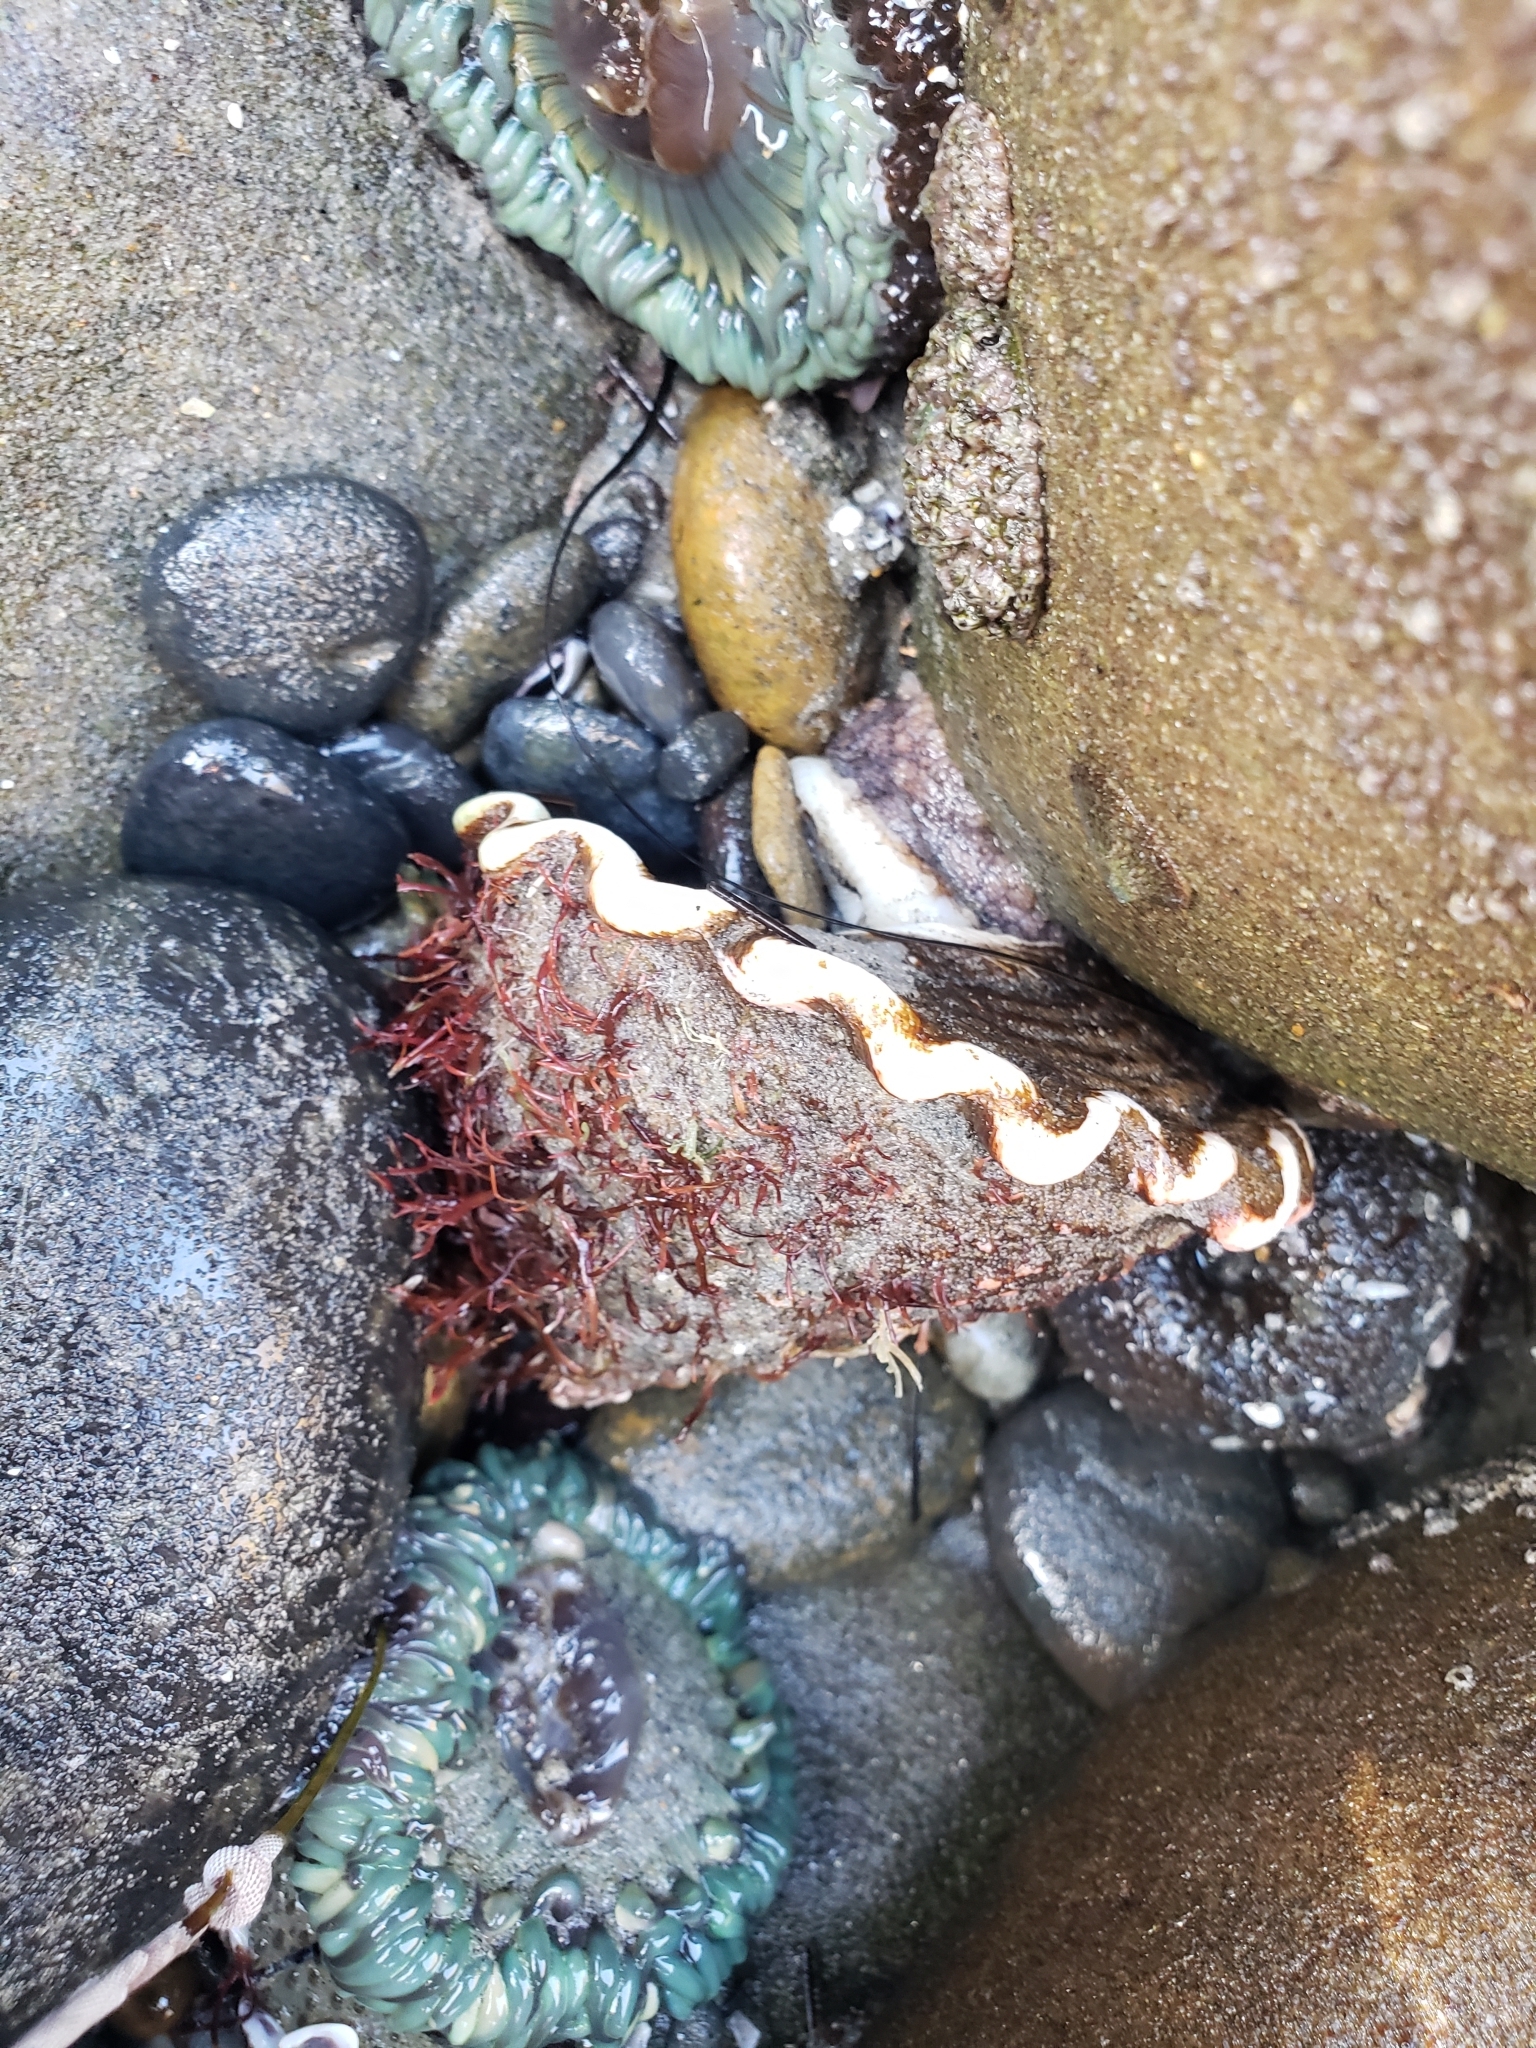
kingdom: Animalia
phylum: Mollusca
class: Gastropoda
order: Trochida
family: Turbinidae
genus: Megastraea
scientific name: Megastraea undosa
